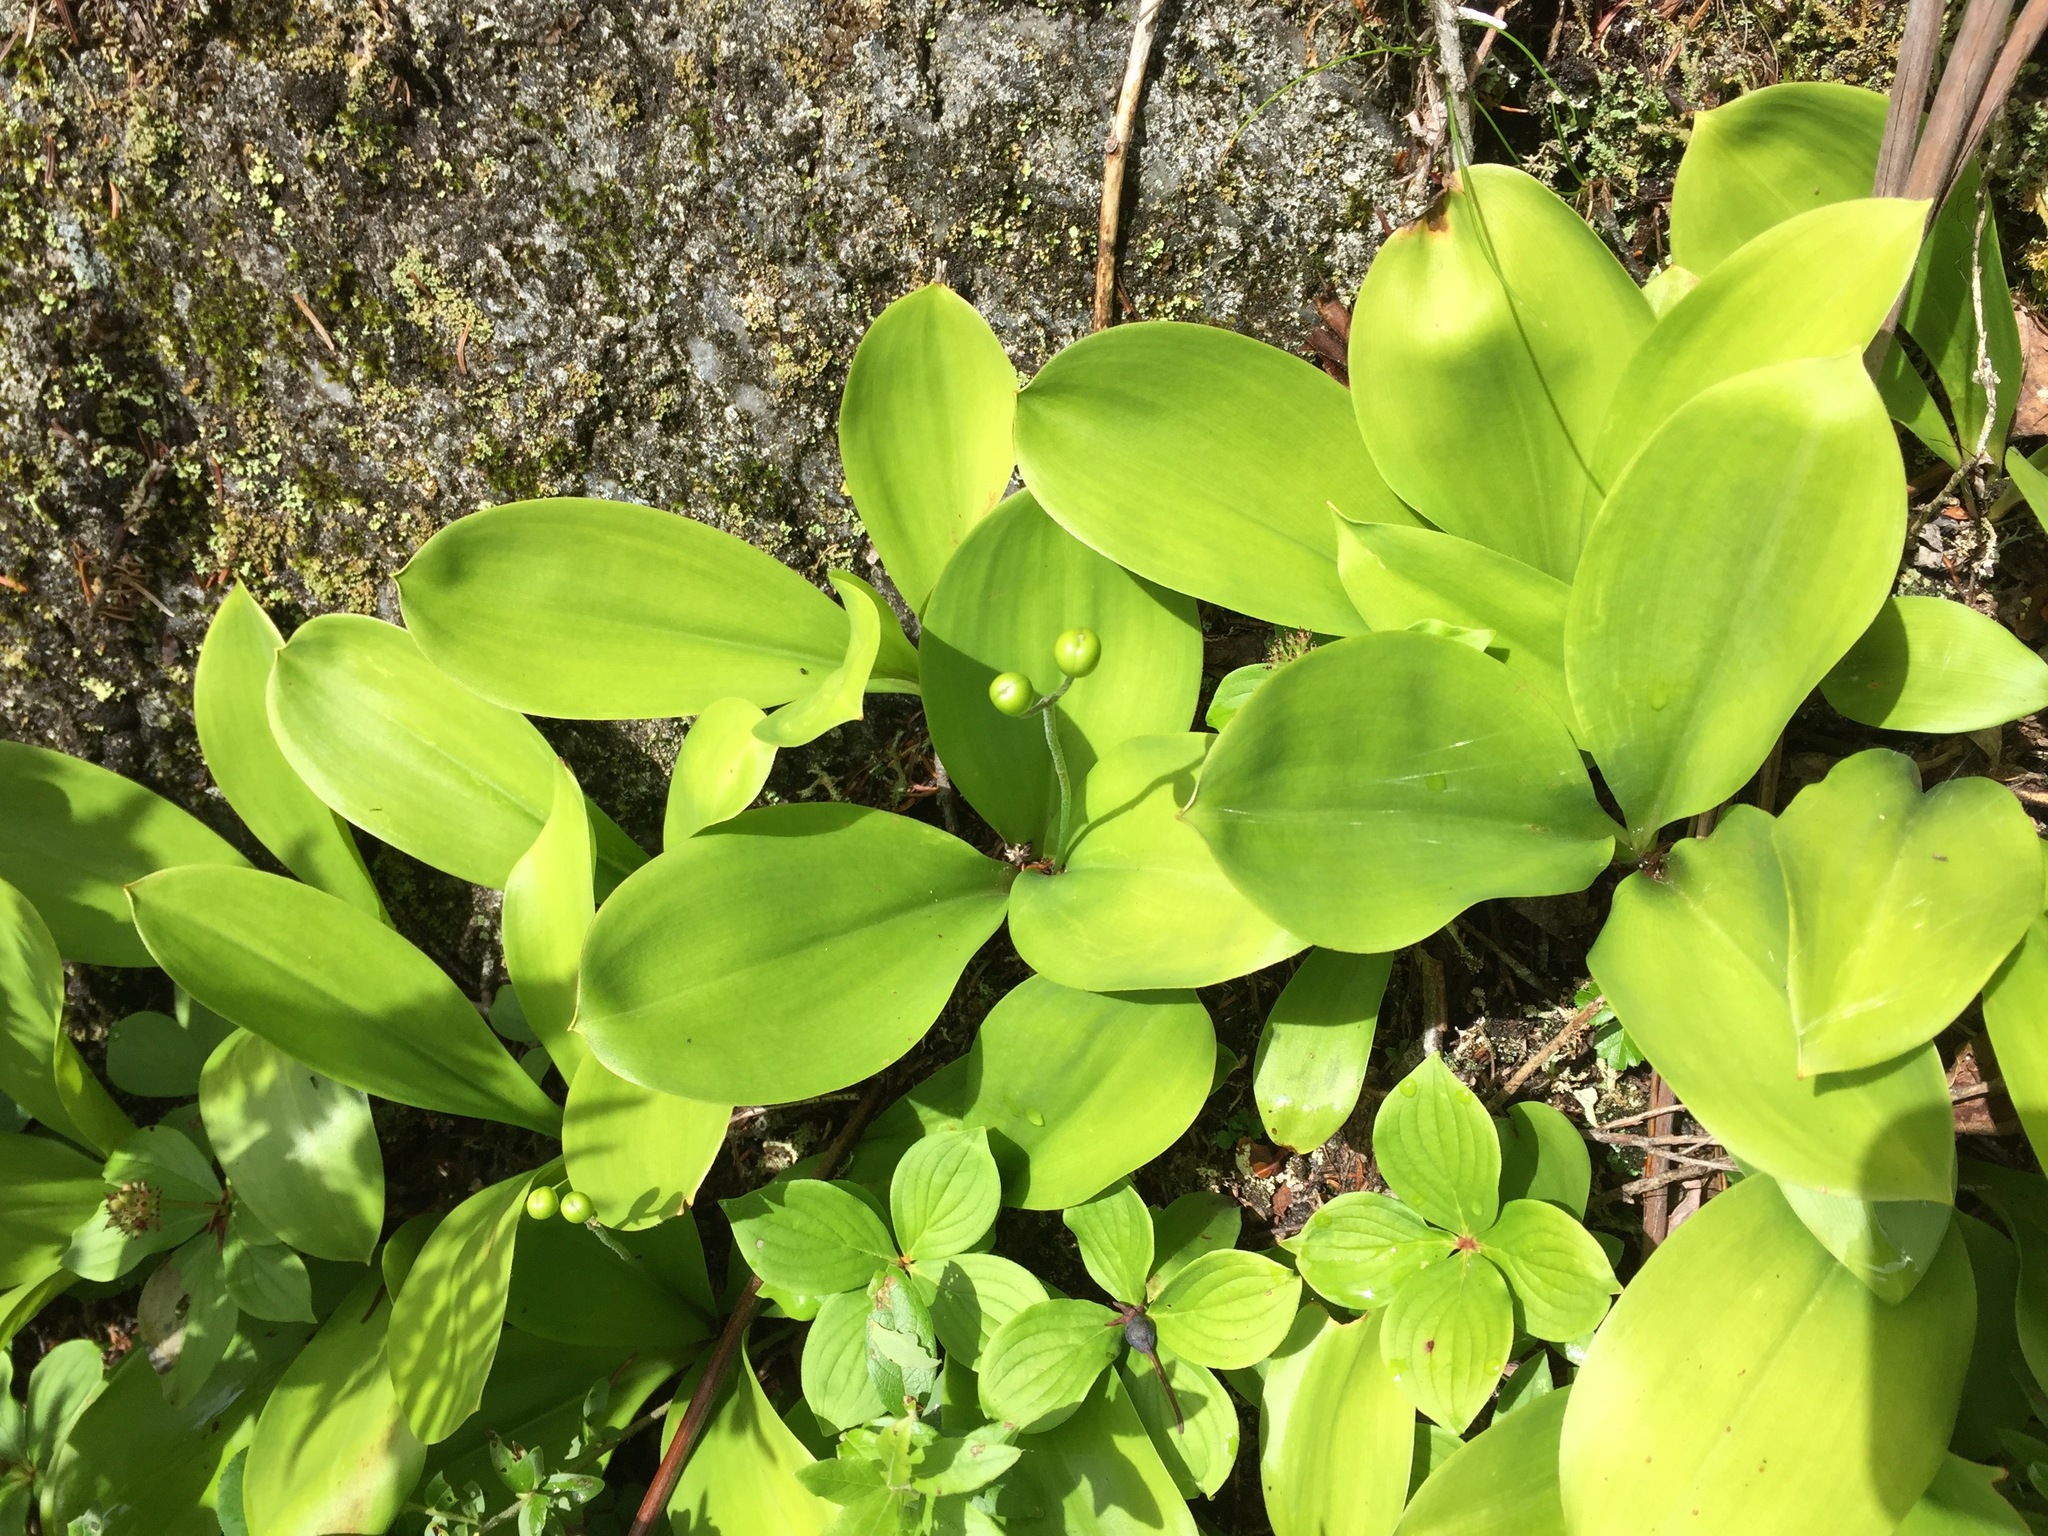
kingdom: Plantae
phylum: Tracheophyta
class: Liliopsida
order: Liliales
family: Liliaceae
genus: Clintonia
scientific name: Clintonia borealis
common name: Yellow clintonia
